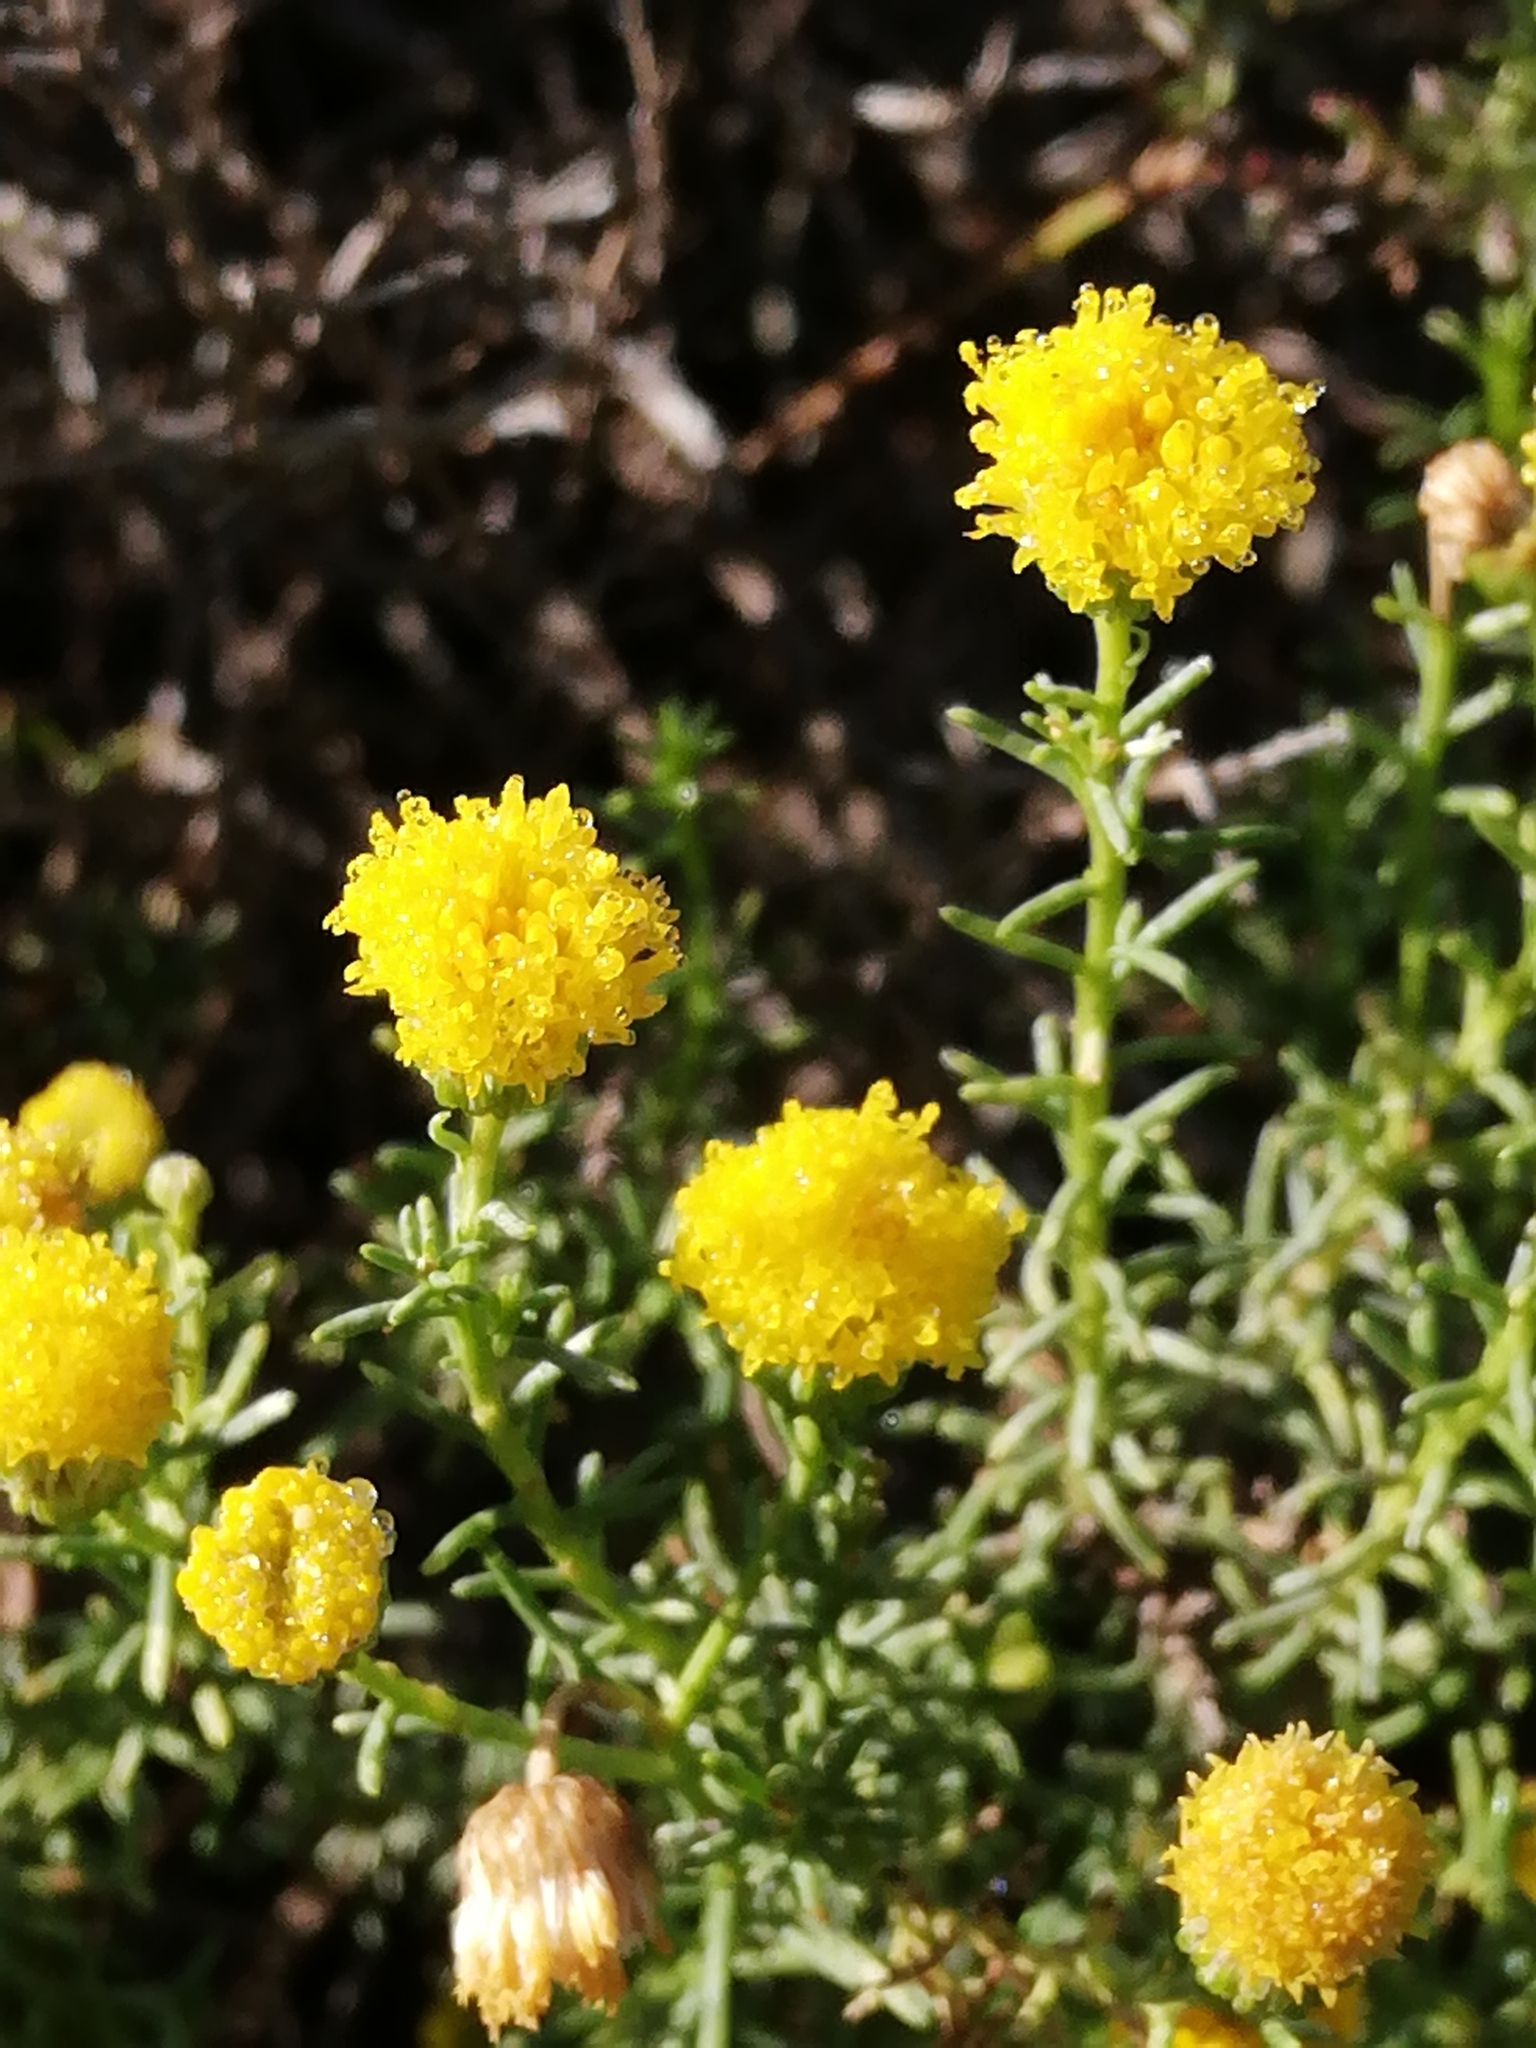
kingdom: Plantae
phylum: Tracheophyta
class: Magnoliopsida
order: Asterales
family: Asteraceae
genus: Chrysocoma
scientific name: Chrysocoma ciliata
